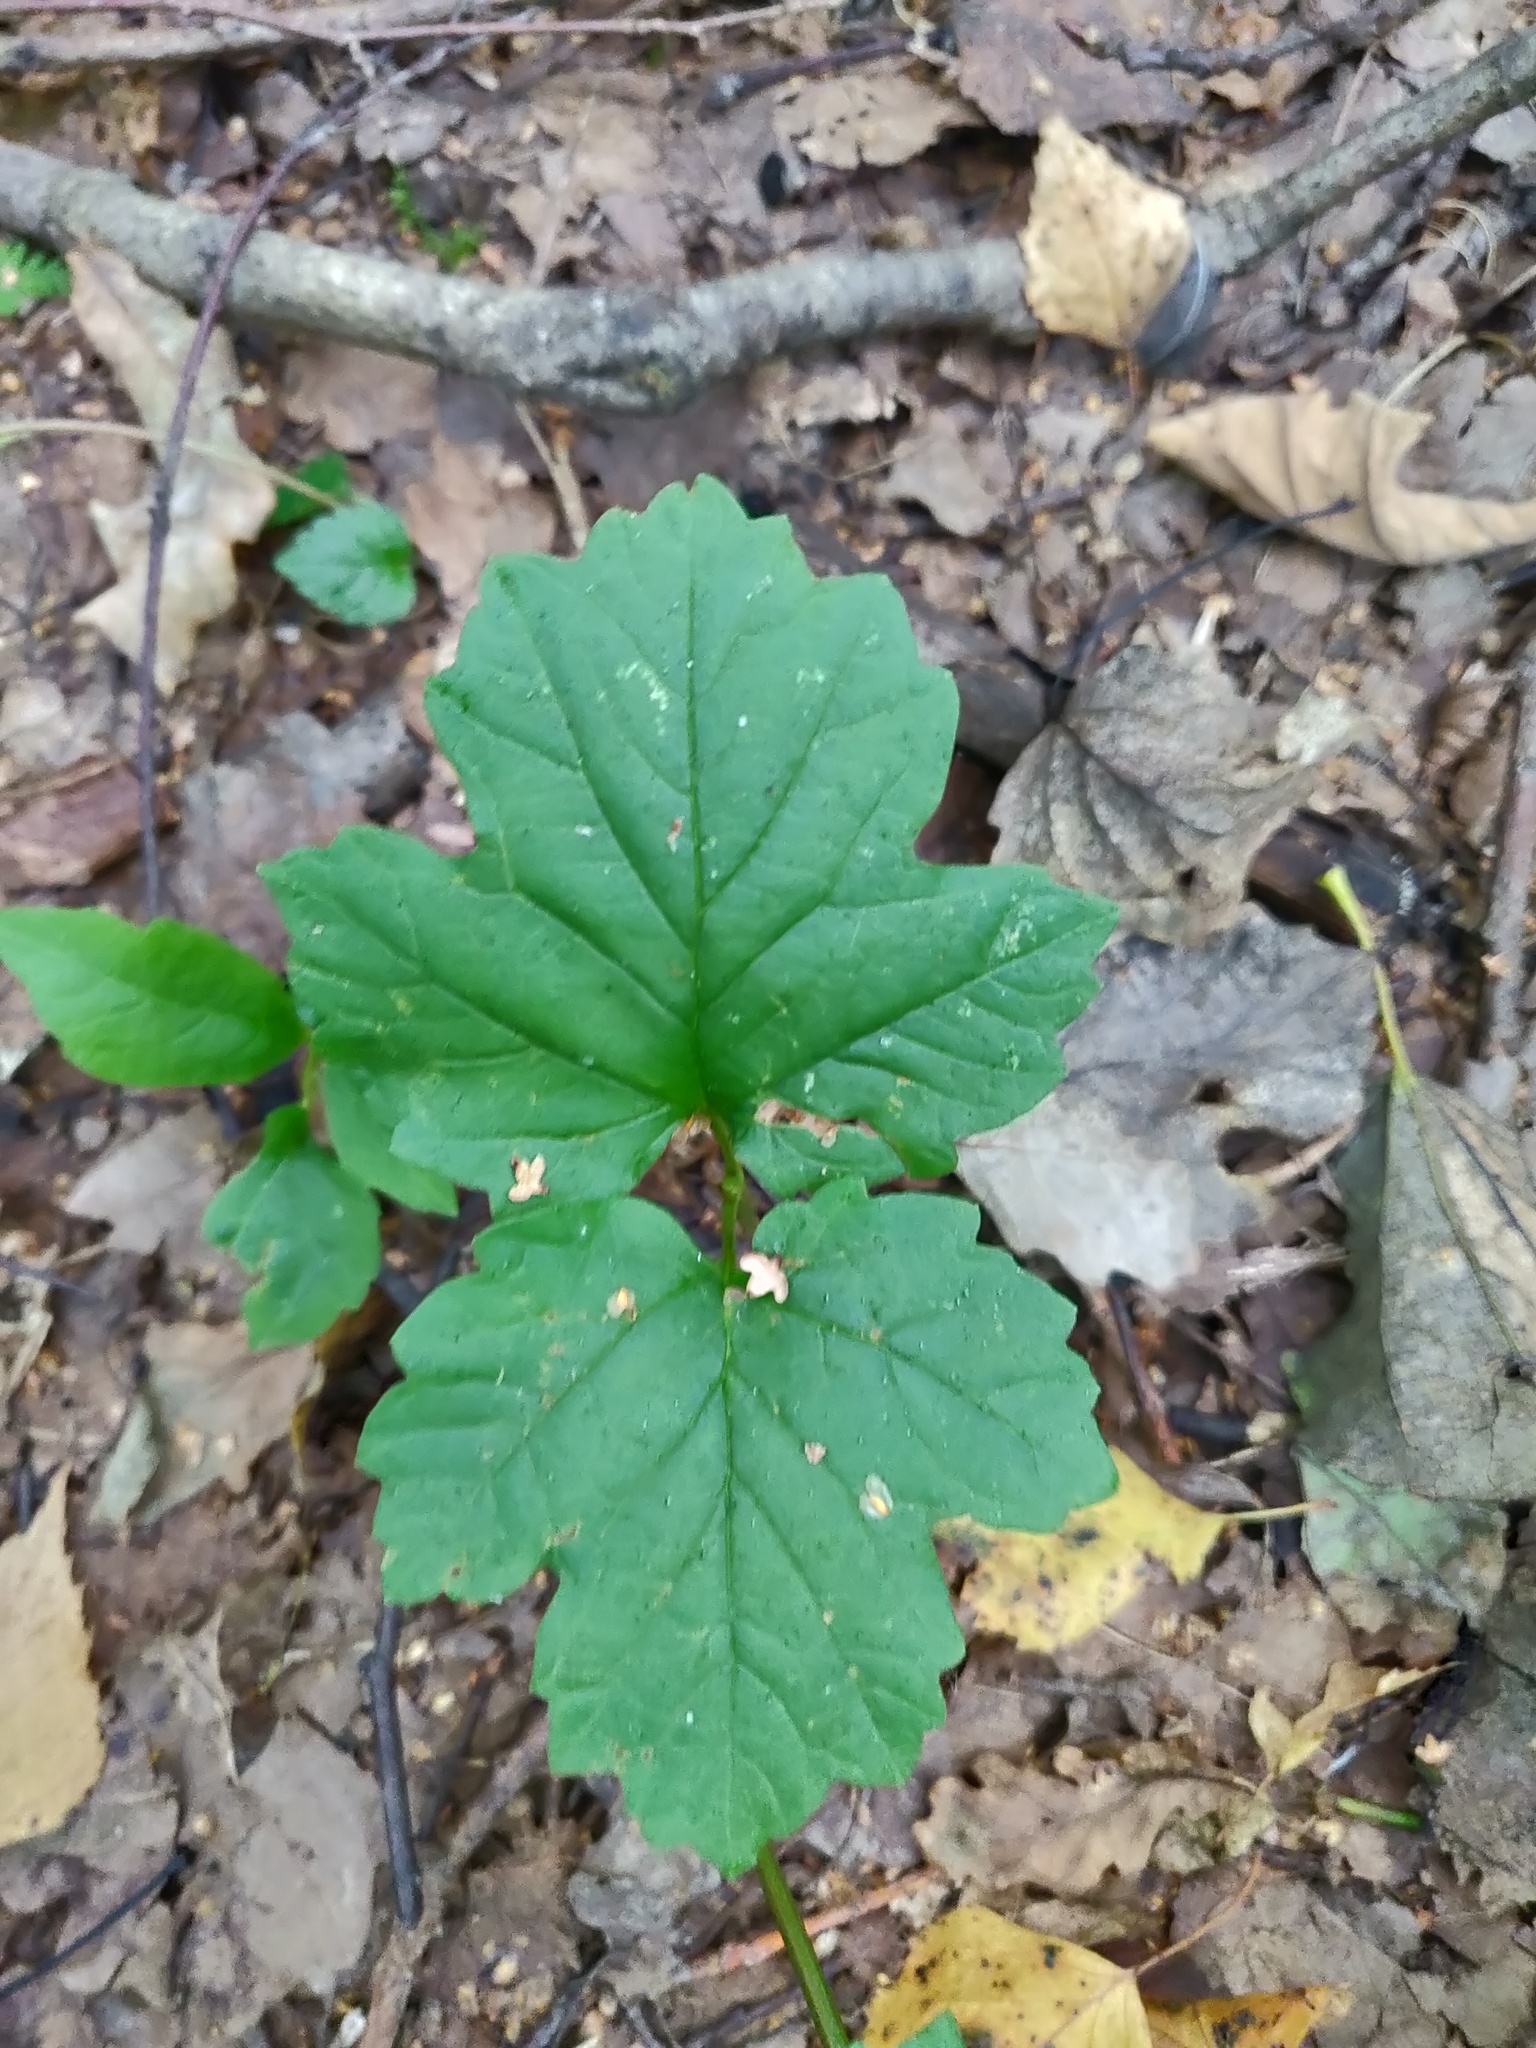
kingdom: Plantae
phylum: Tracheophyta
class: Magnoliopsida
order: Dipsacales
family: Viburnaceae
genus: Viburnum
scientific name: Viburnum opulus
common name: Guelder-rose
